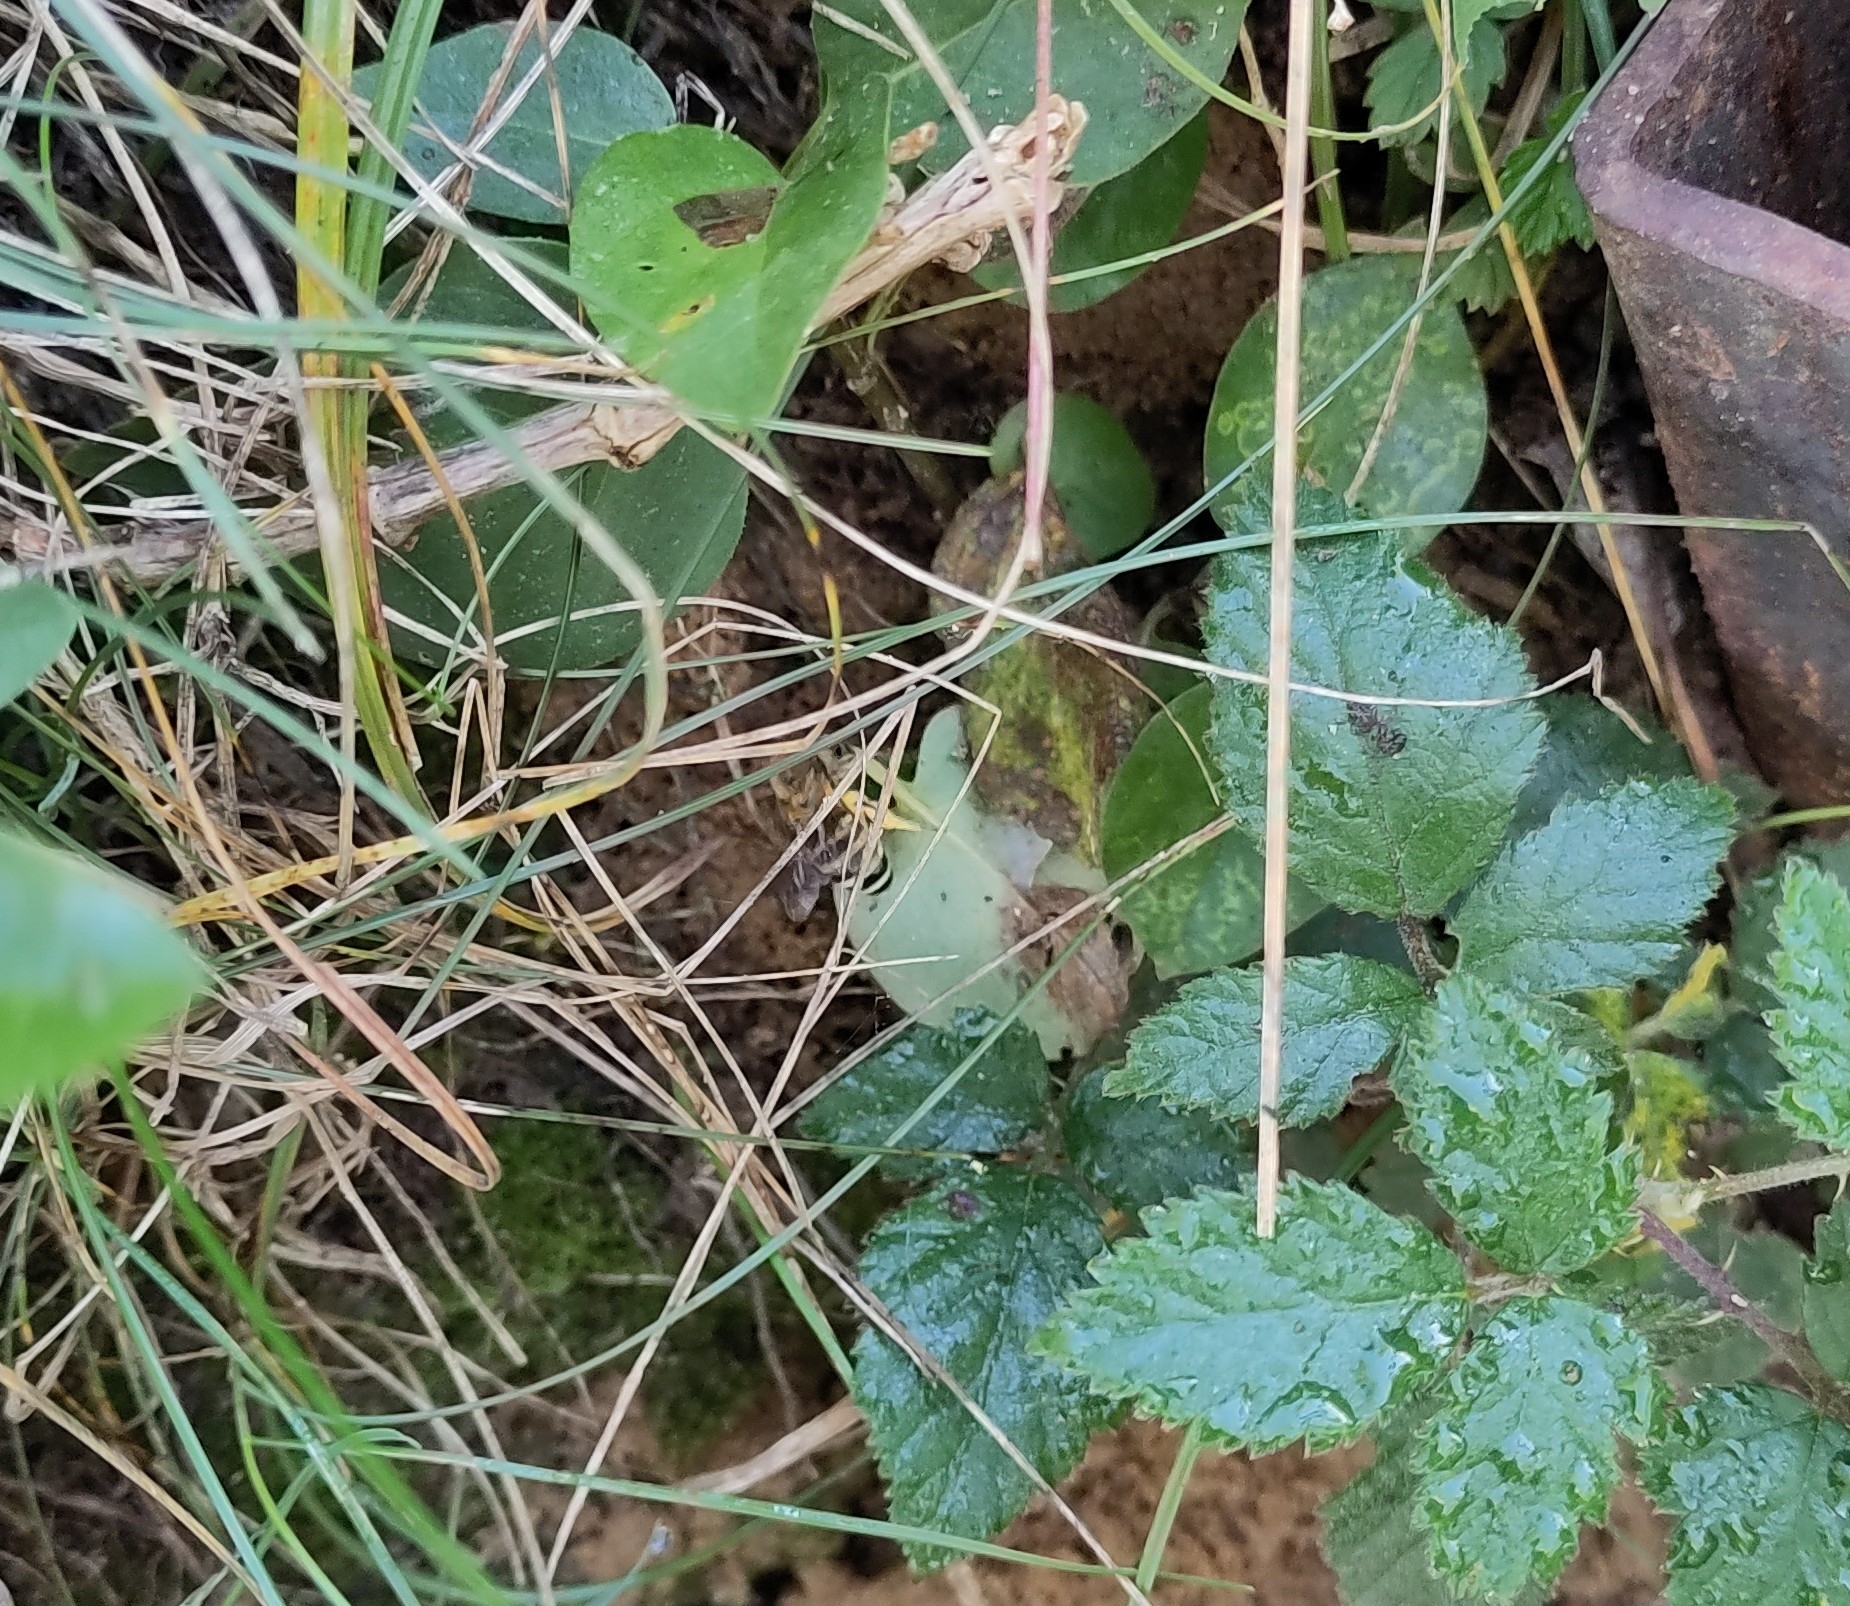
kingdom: Animalia
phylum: Arthropoda
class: Insecta
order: Hymenoptera
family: Colletidae
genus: Colletes
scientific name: Colletes hederae
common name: Ivy bee
